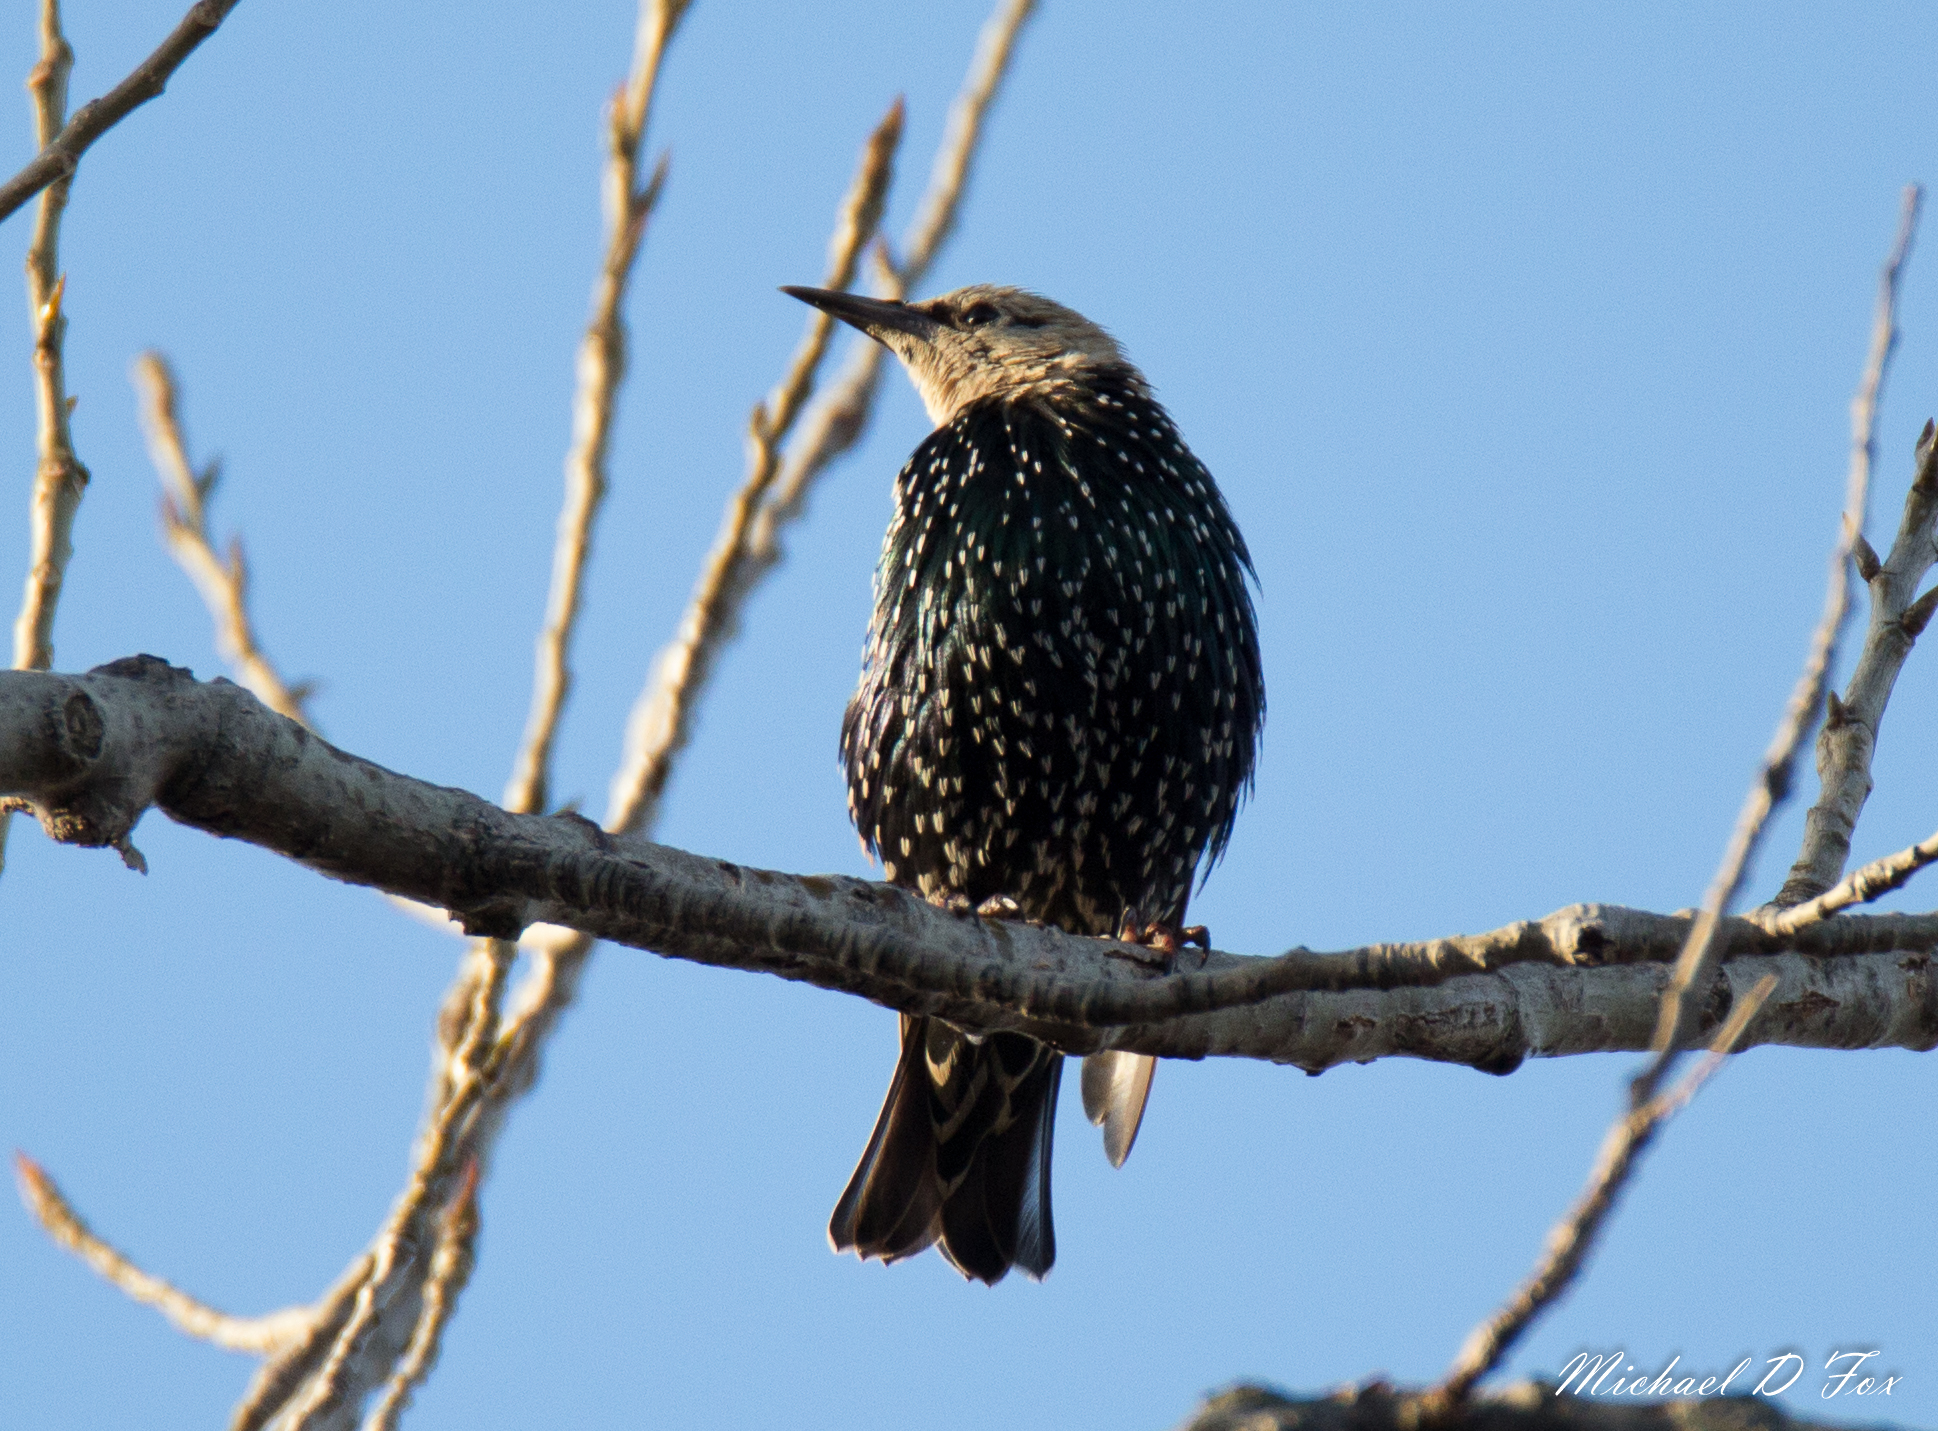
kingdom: Animalia
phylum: Chordata
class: Aves
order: Passeriformes
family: Sturnidae
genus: Sturnus
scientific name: Sturnus vulgaris
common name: Common starling
